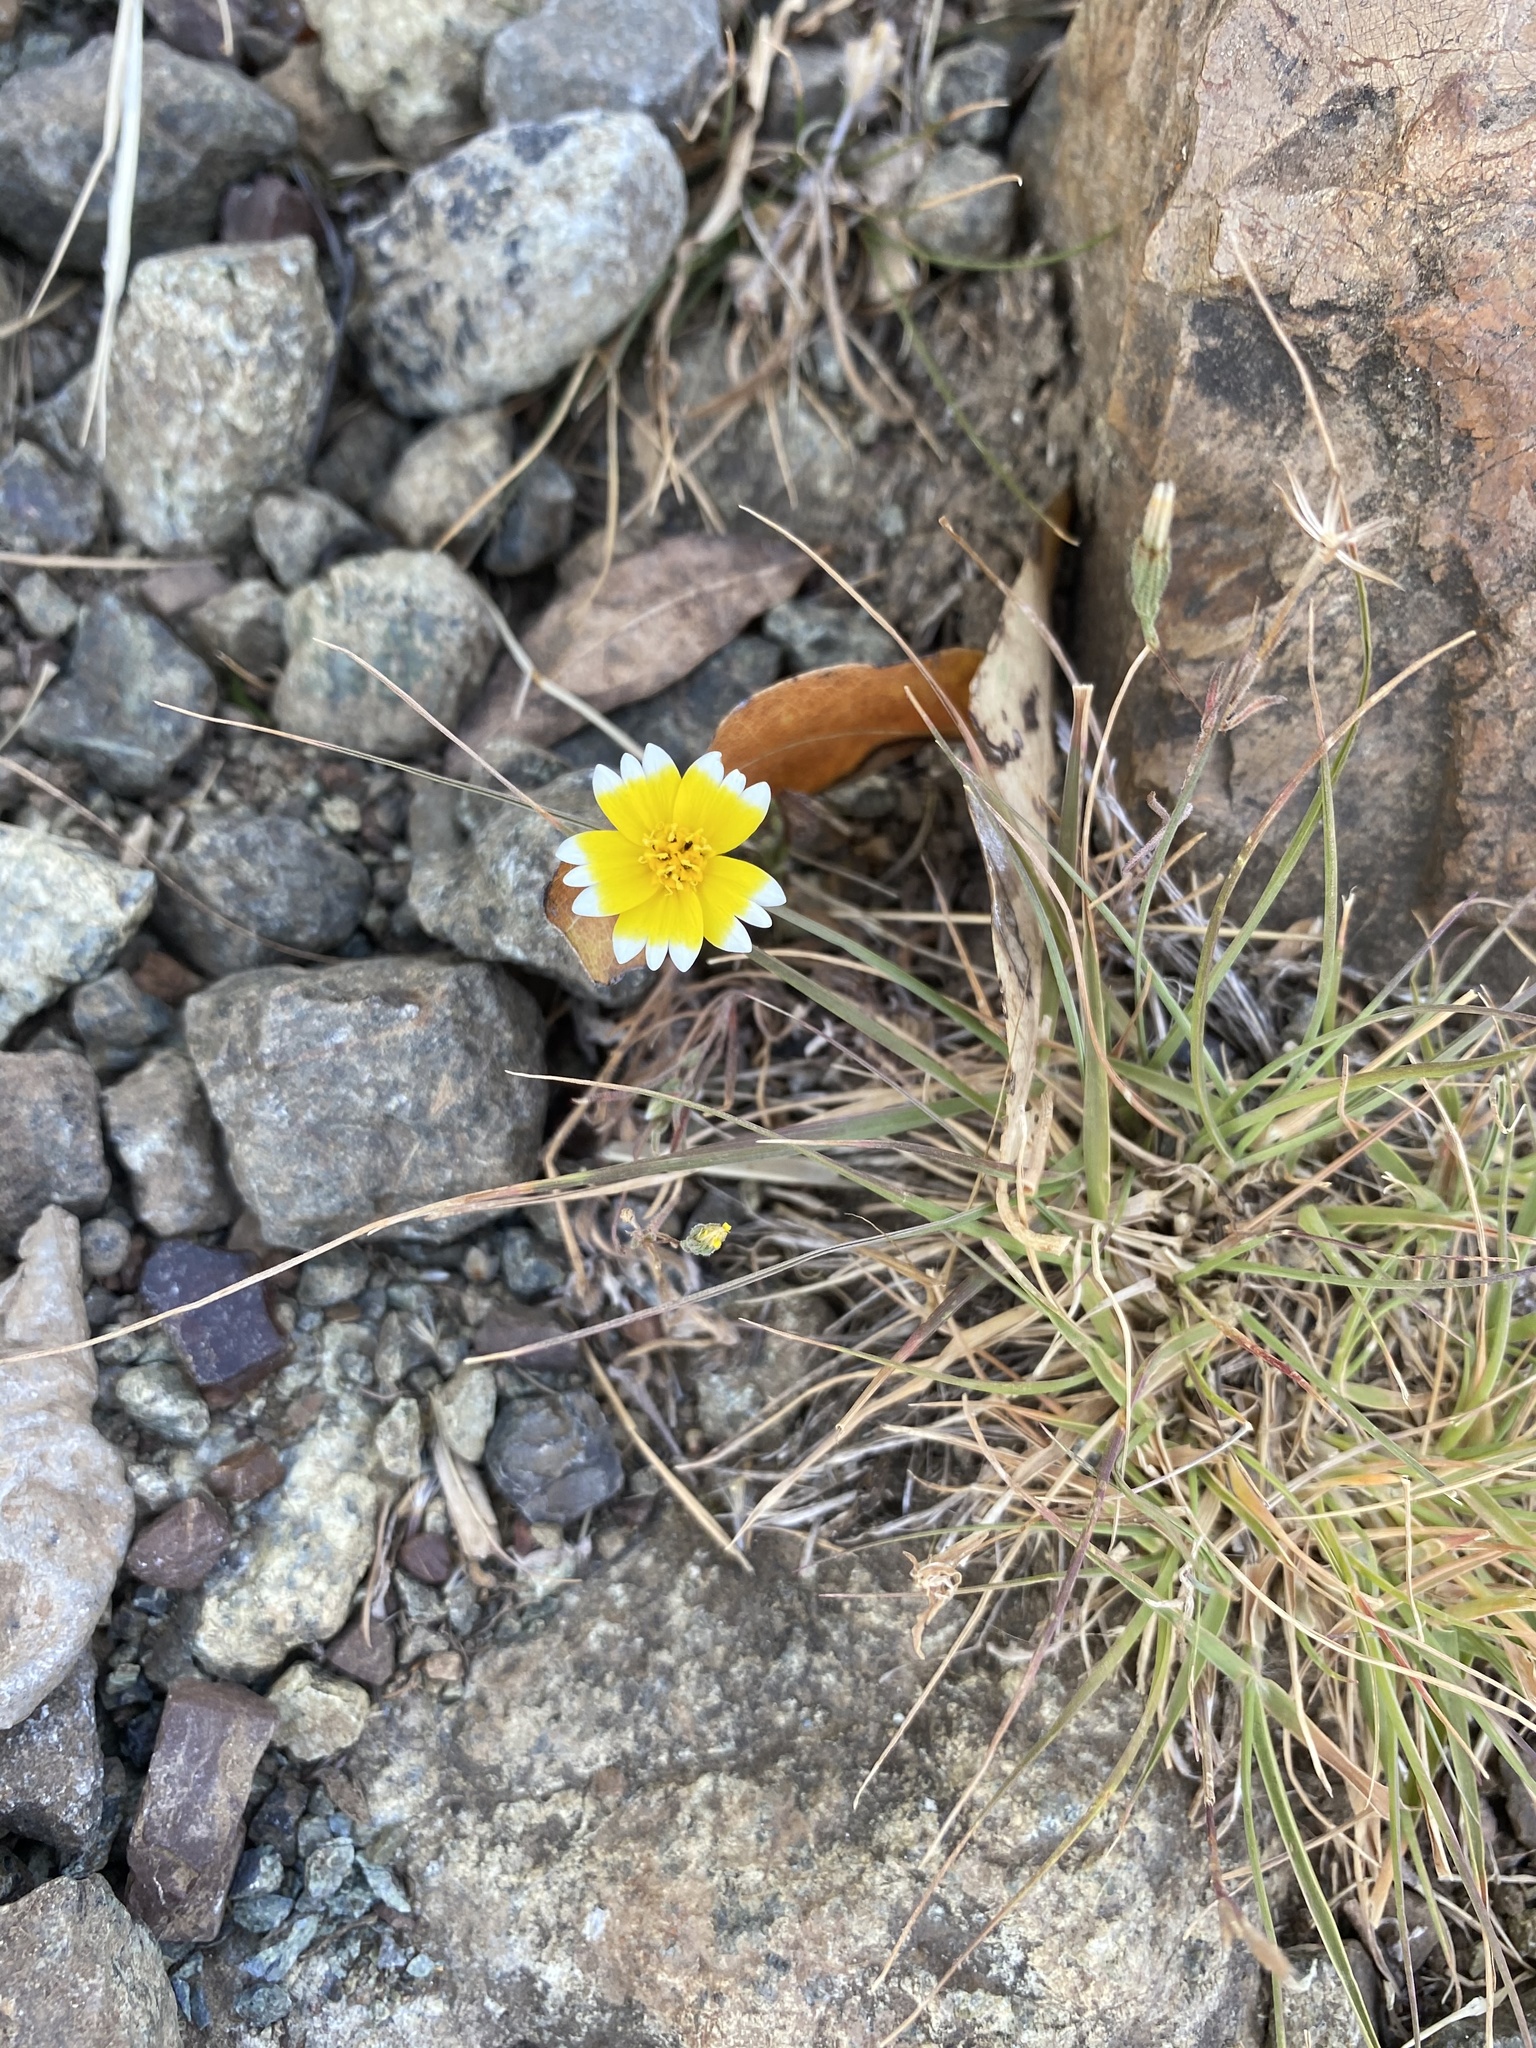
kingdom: Plantae
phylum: Tracheophyta
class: Magnoliopsida
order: Asterales
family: Asteraceae
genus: Layia
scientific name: Layia platyglossa
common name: Tidy-tips
